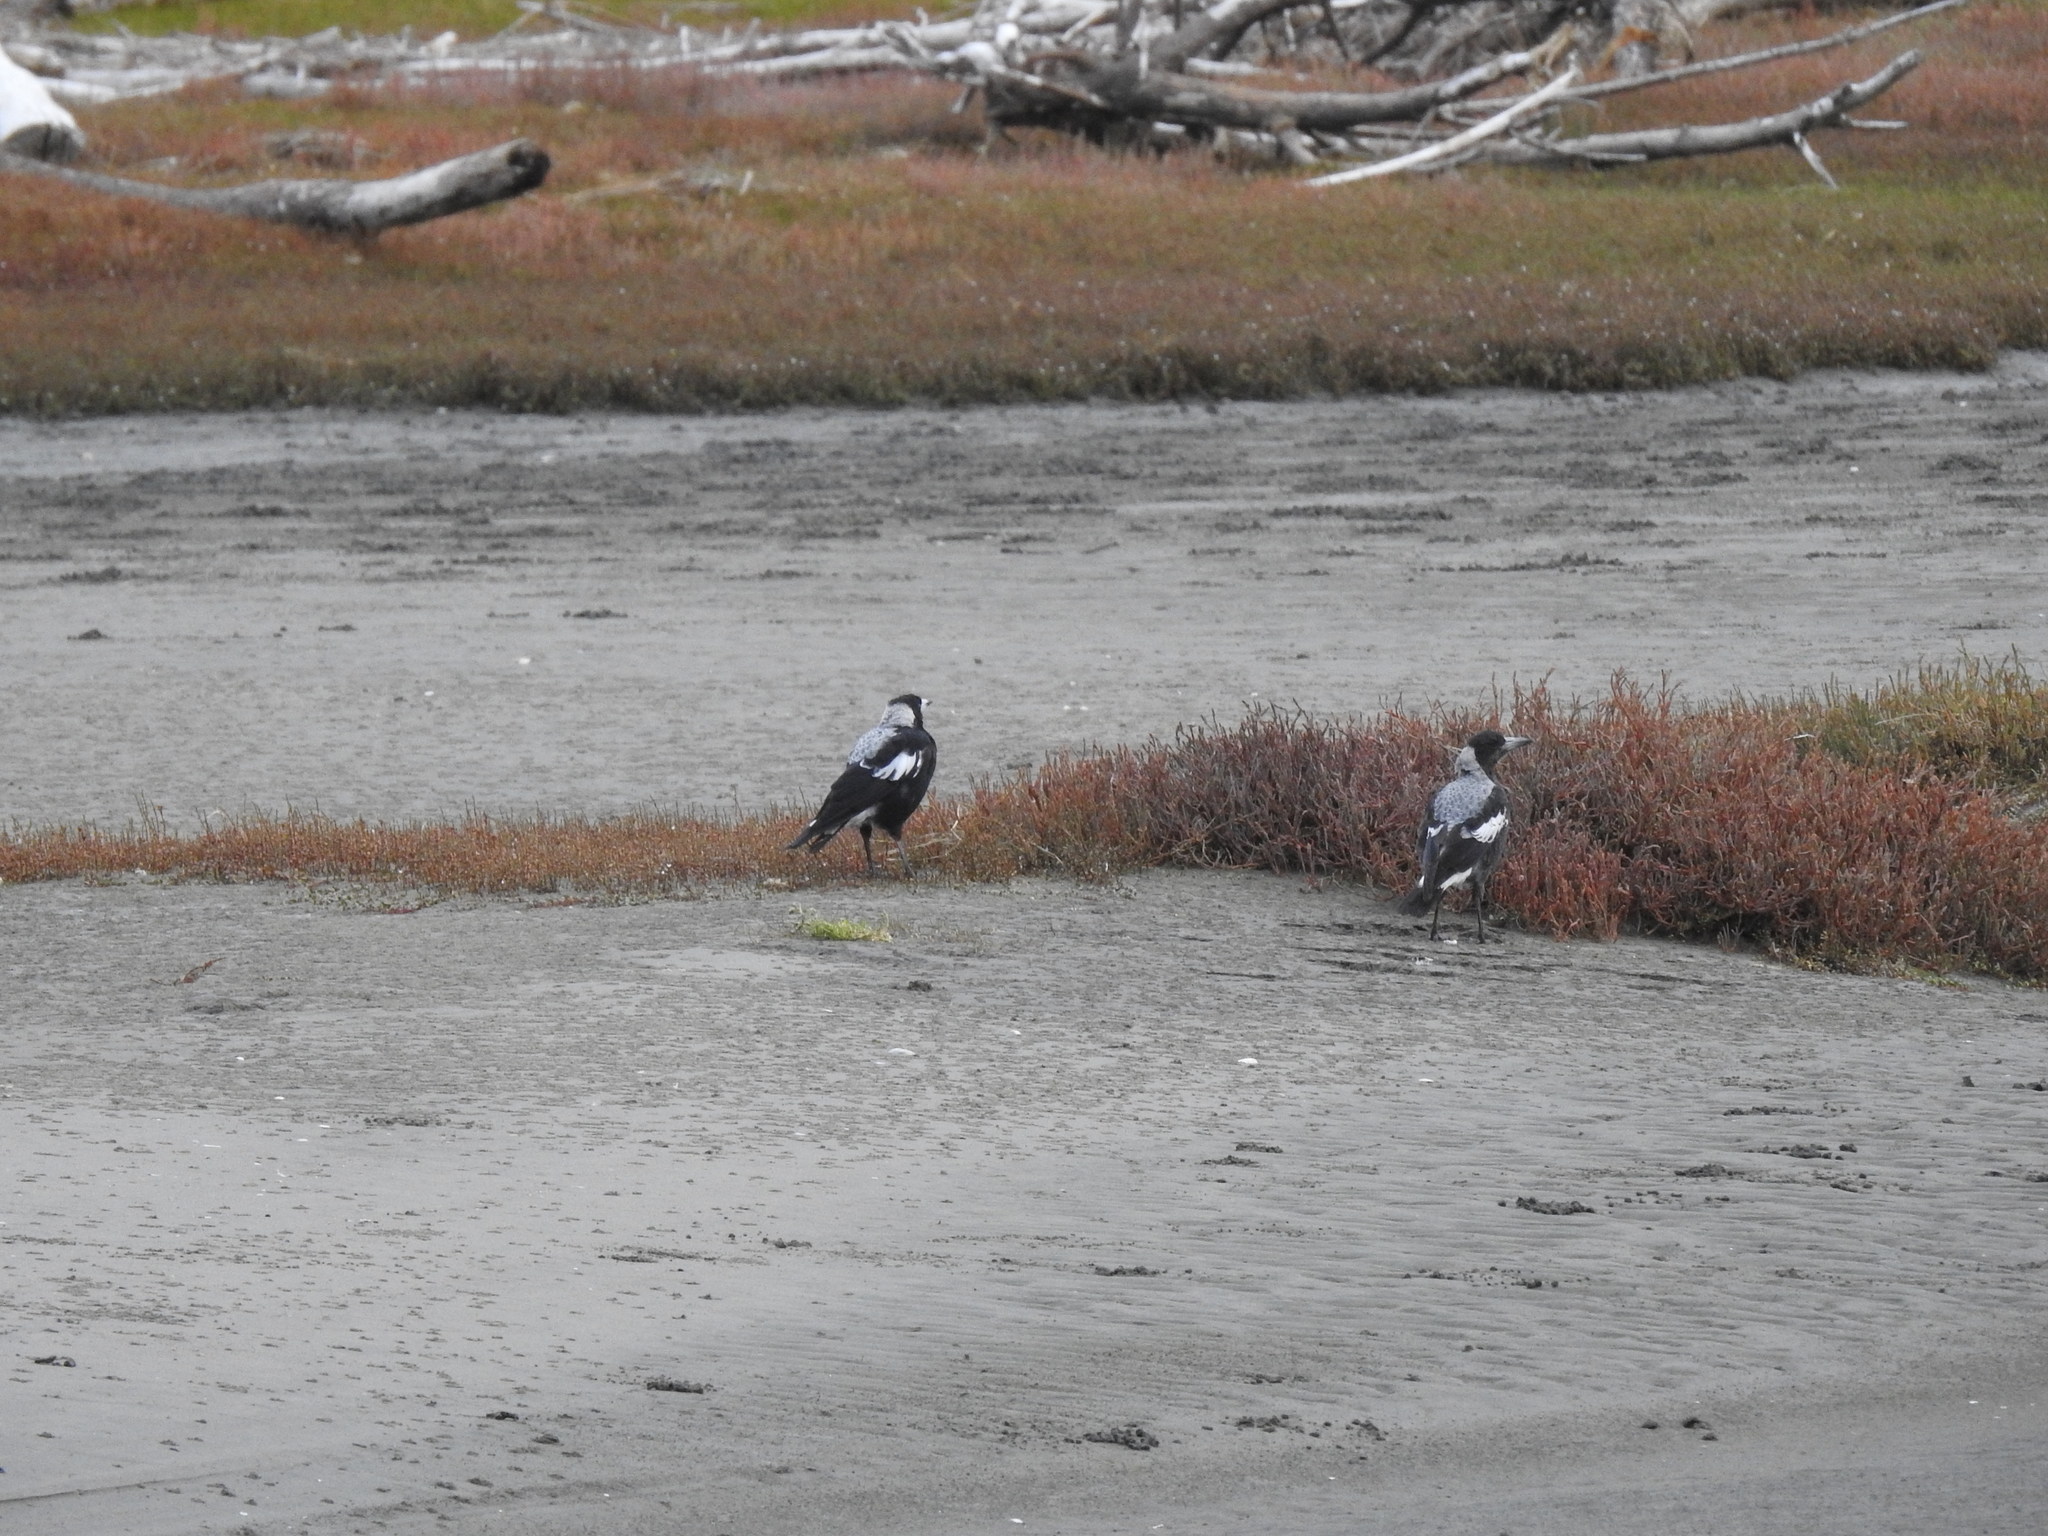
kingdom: Animalia
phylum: Chordata
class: Aves
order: Passeriformes
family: Cracticidae
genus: Gymnorhina
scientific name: Gymnorhina tibicen
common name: Australian magpie
